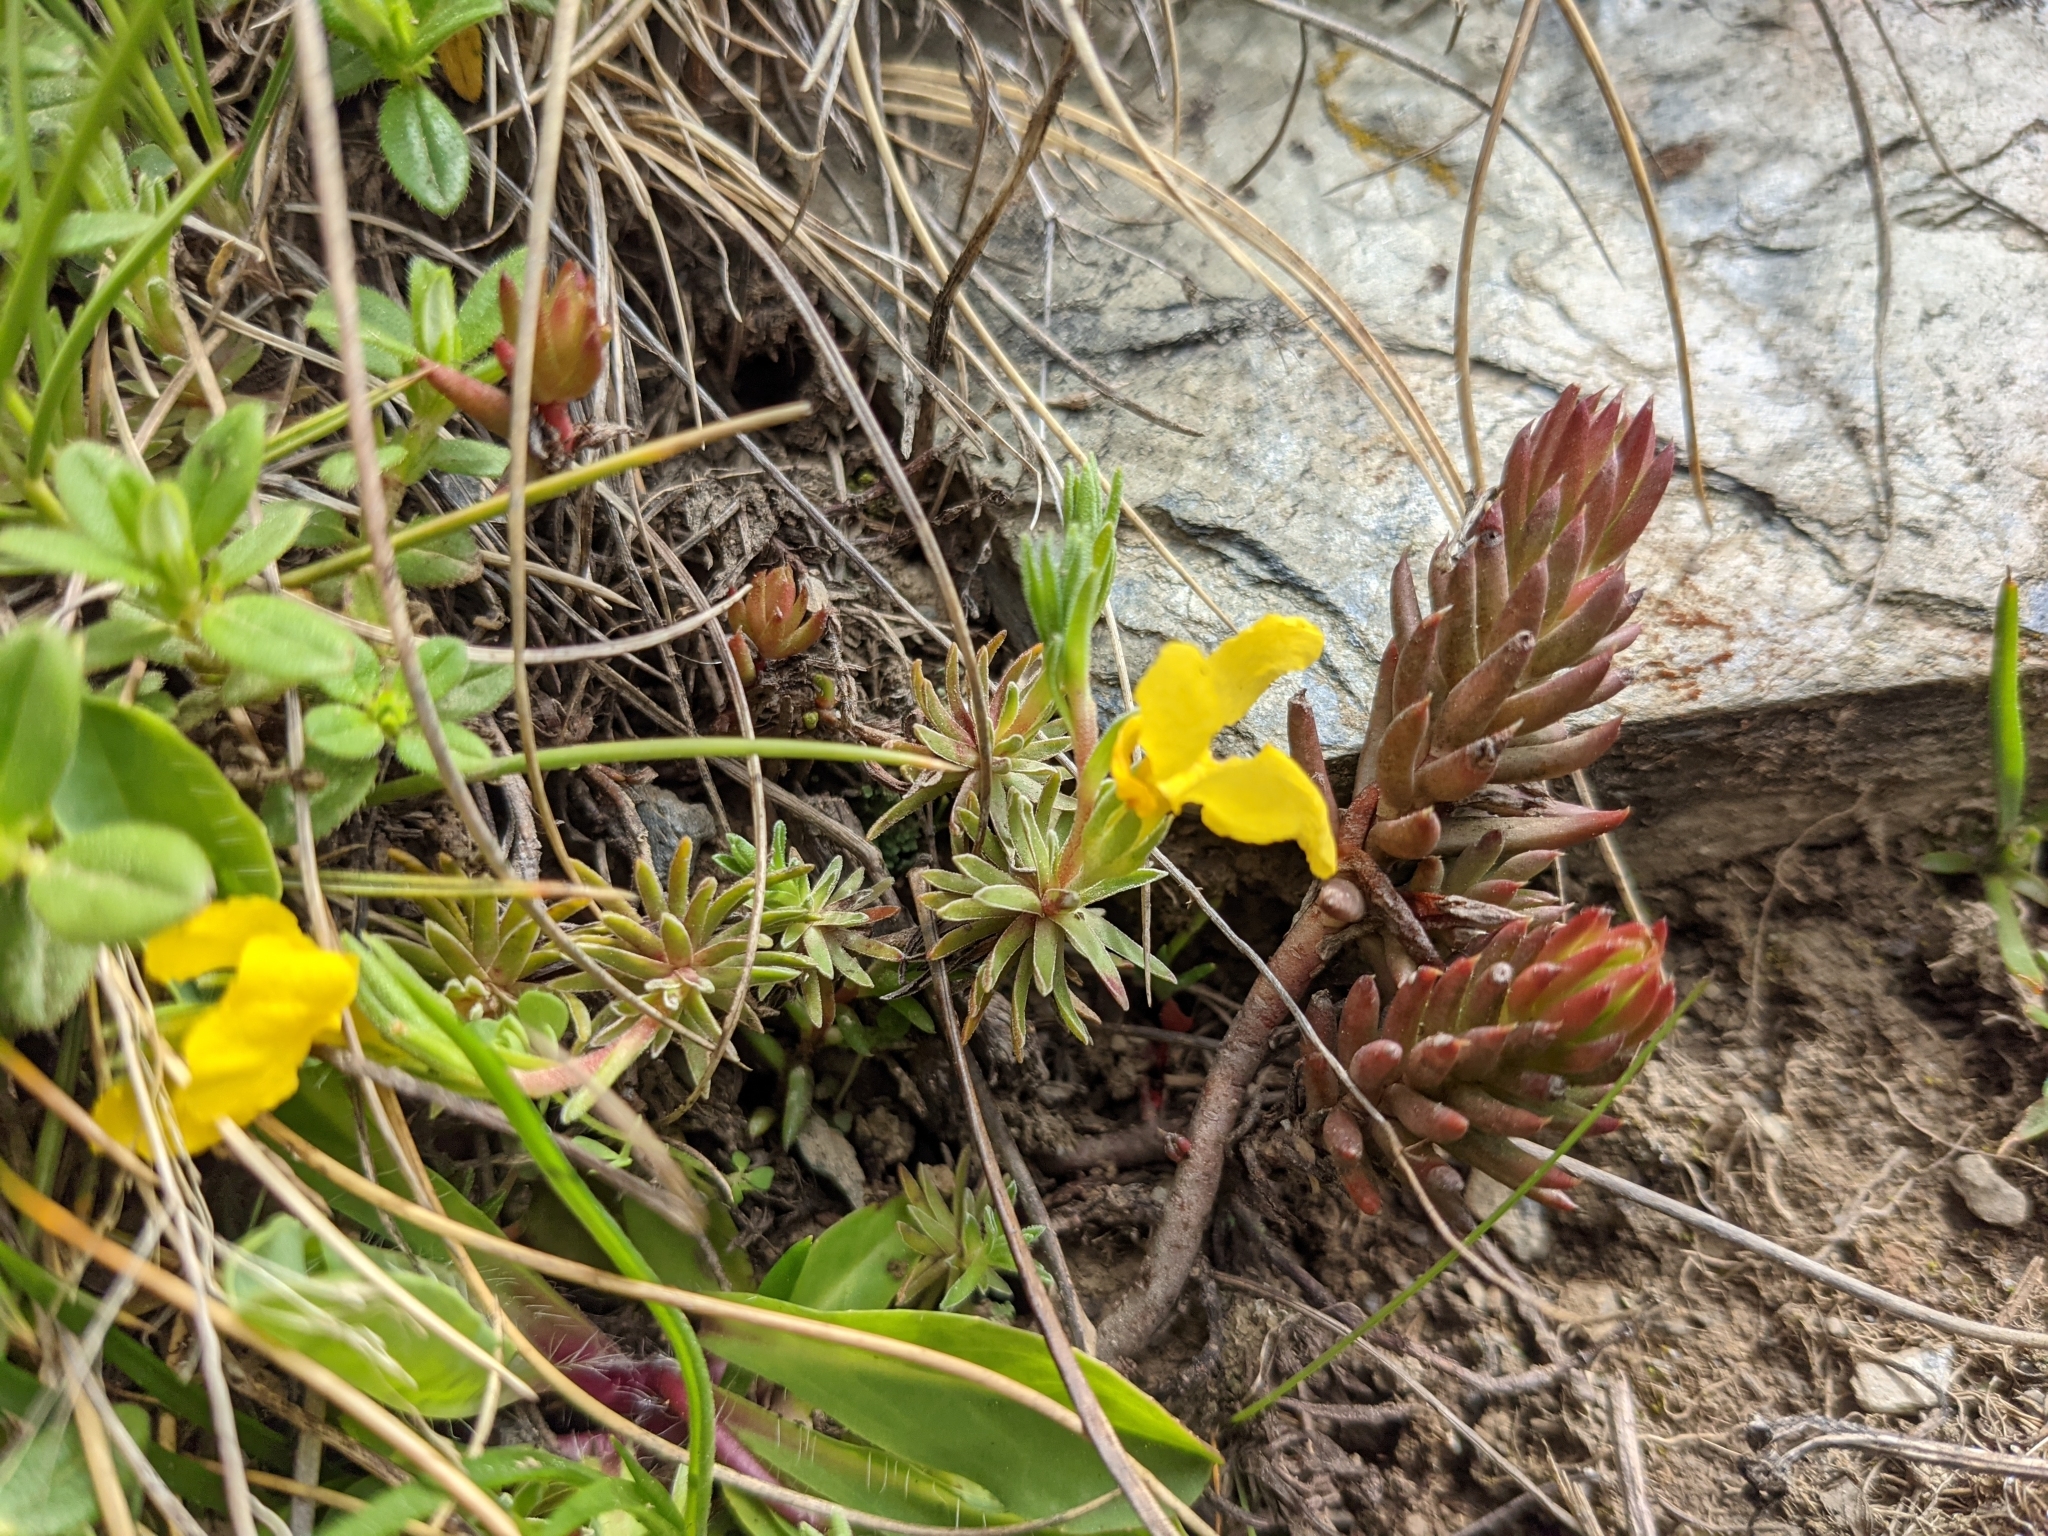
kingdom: Plantae
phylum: Tracheophyta
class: Magnoliopsida
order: Ericales
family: Primulaceae
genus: Androsace
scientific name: Androsace vitaliana
